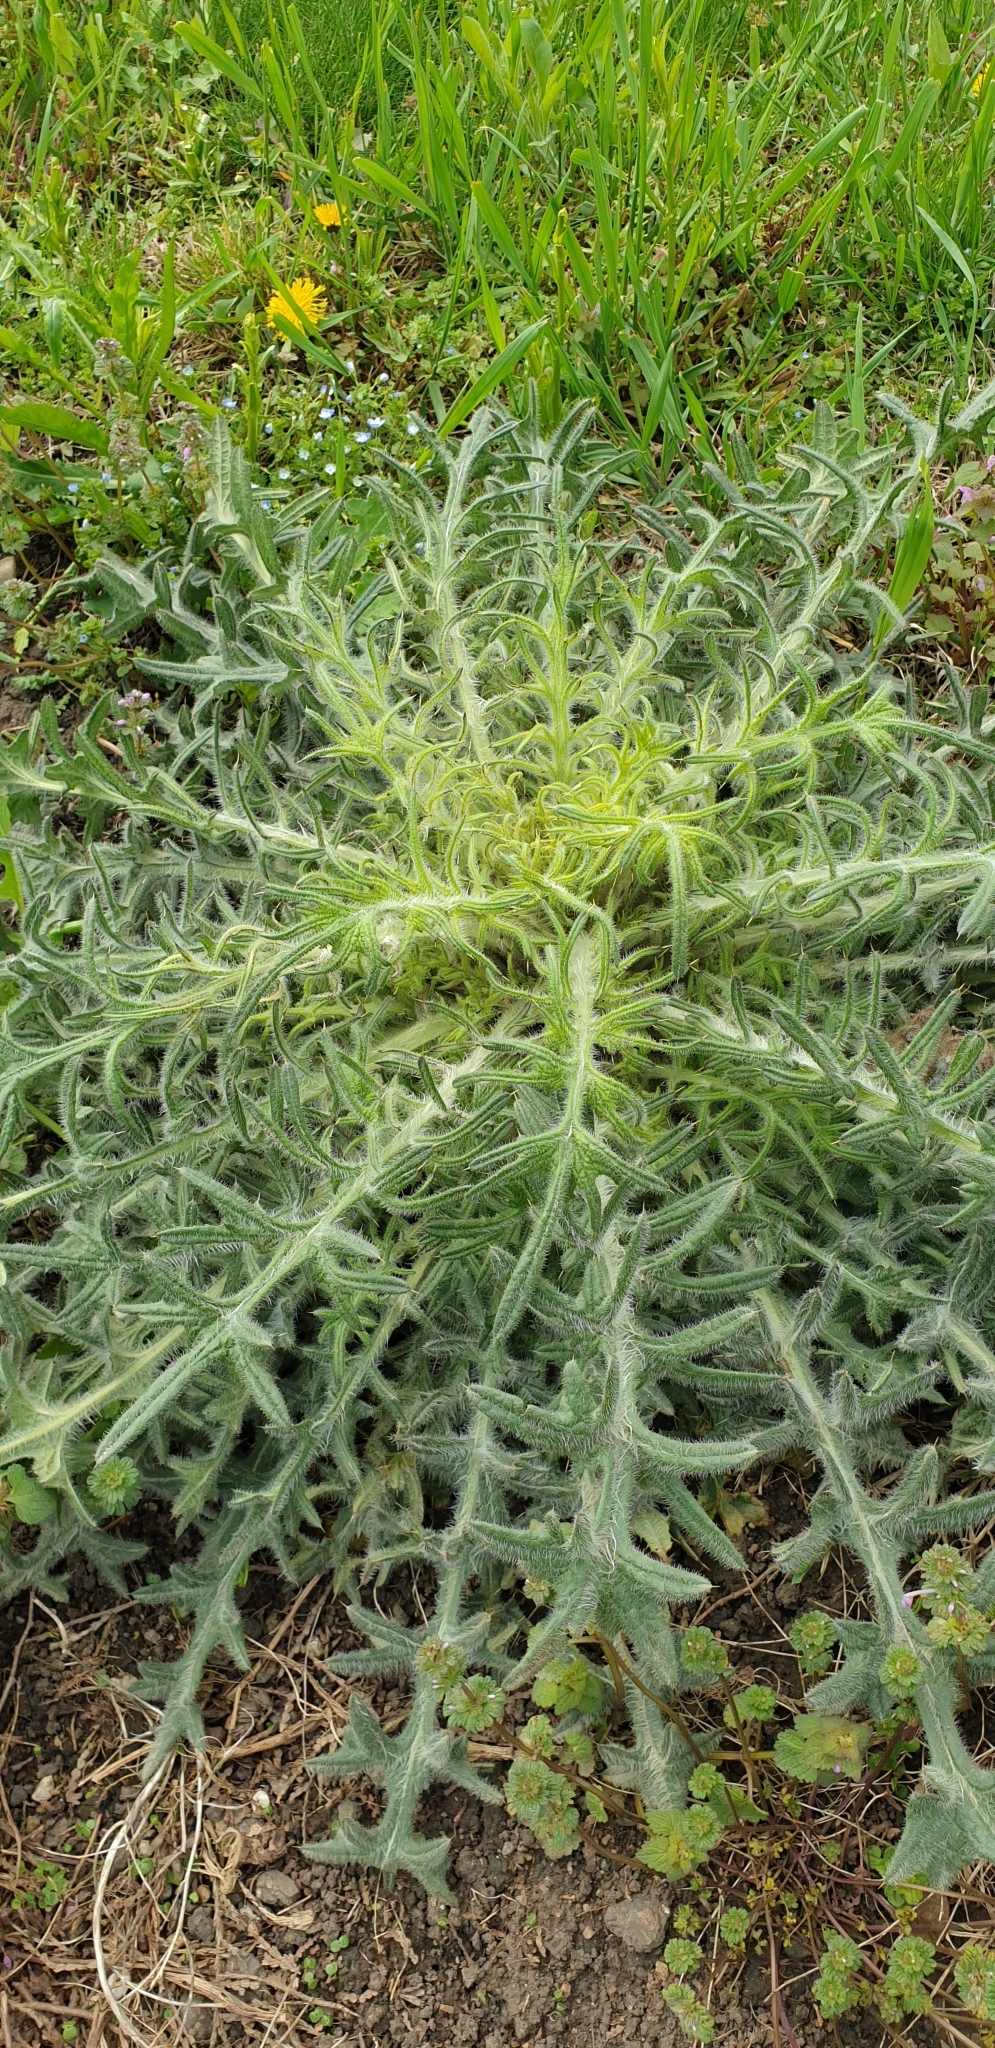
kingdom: Plantae
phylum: Tracheophyta
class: Magnoliopsida
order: Asterales
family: Asteraceae
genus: Cirsium
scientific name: Cirsium vulgare
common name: Bull thistle
